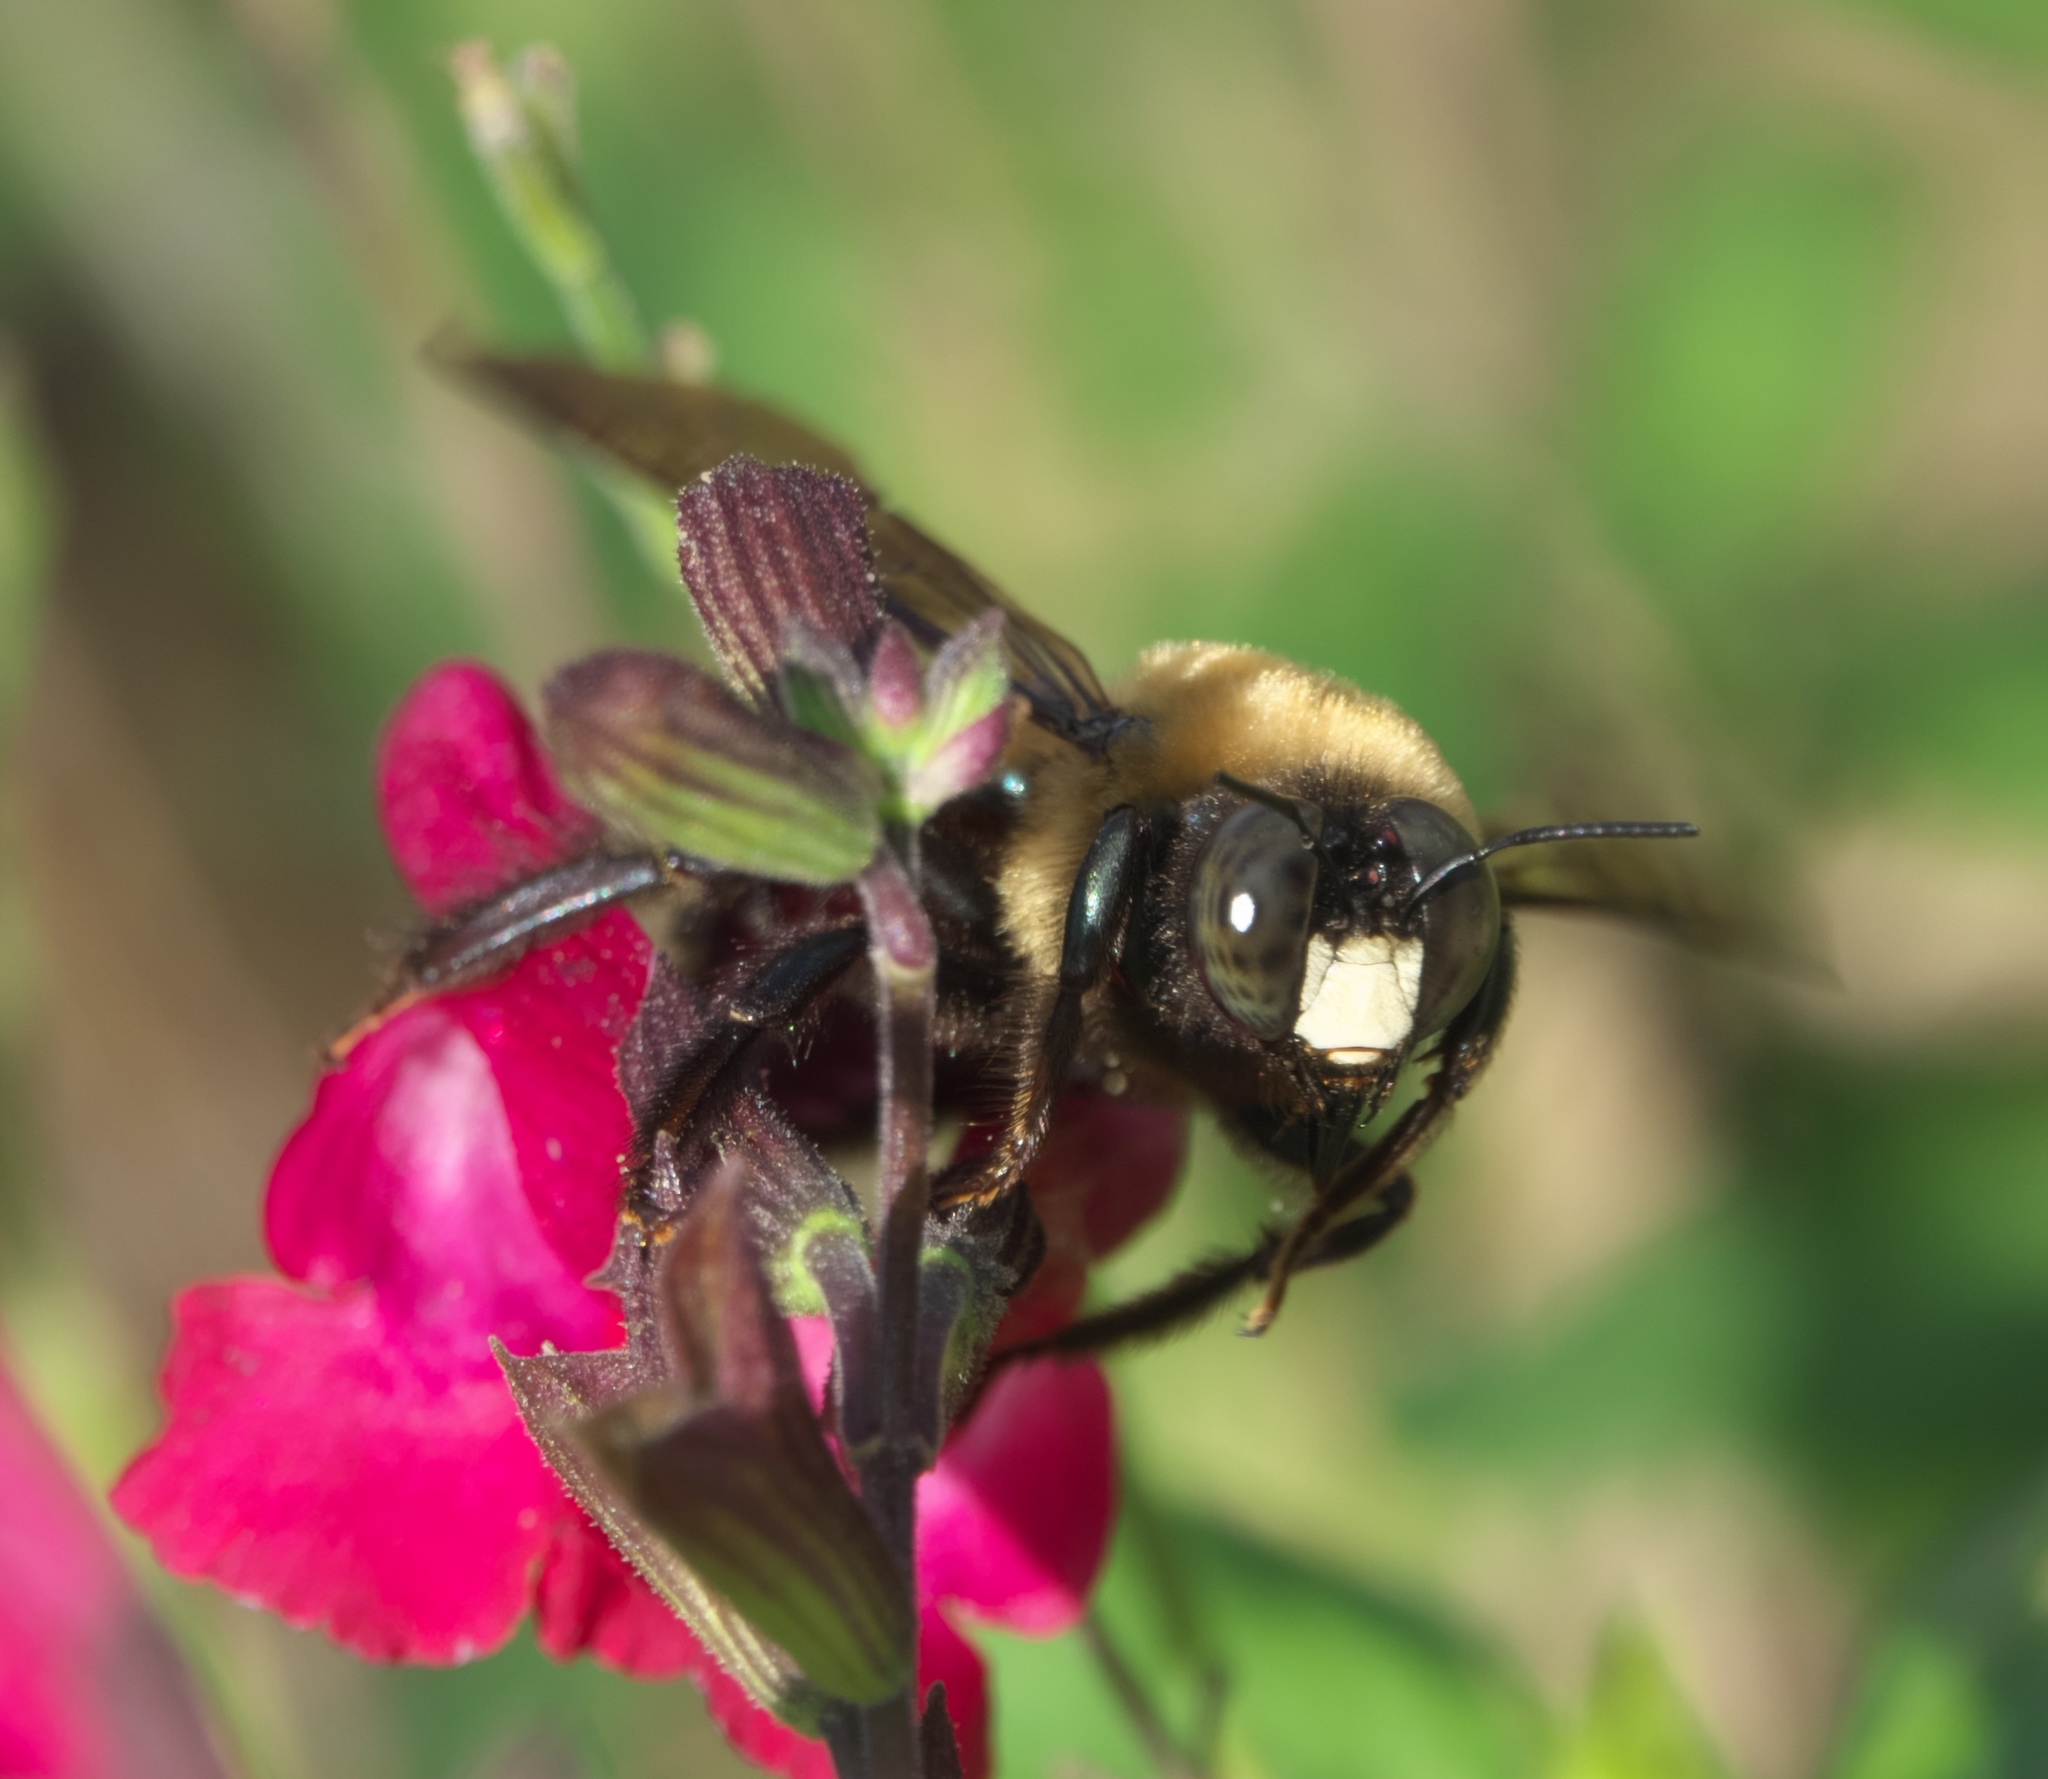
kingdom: Animalia
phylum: Arthropoda
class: Insecta
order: Hymenoptera
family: Apidae
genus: Xylocopa
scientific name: Xylocopa virginica
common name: Carpenter bee
